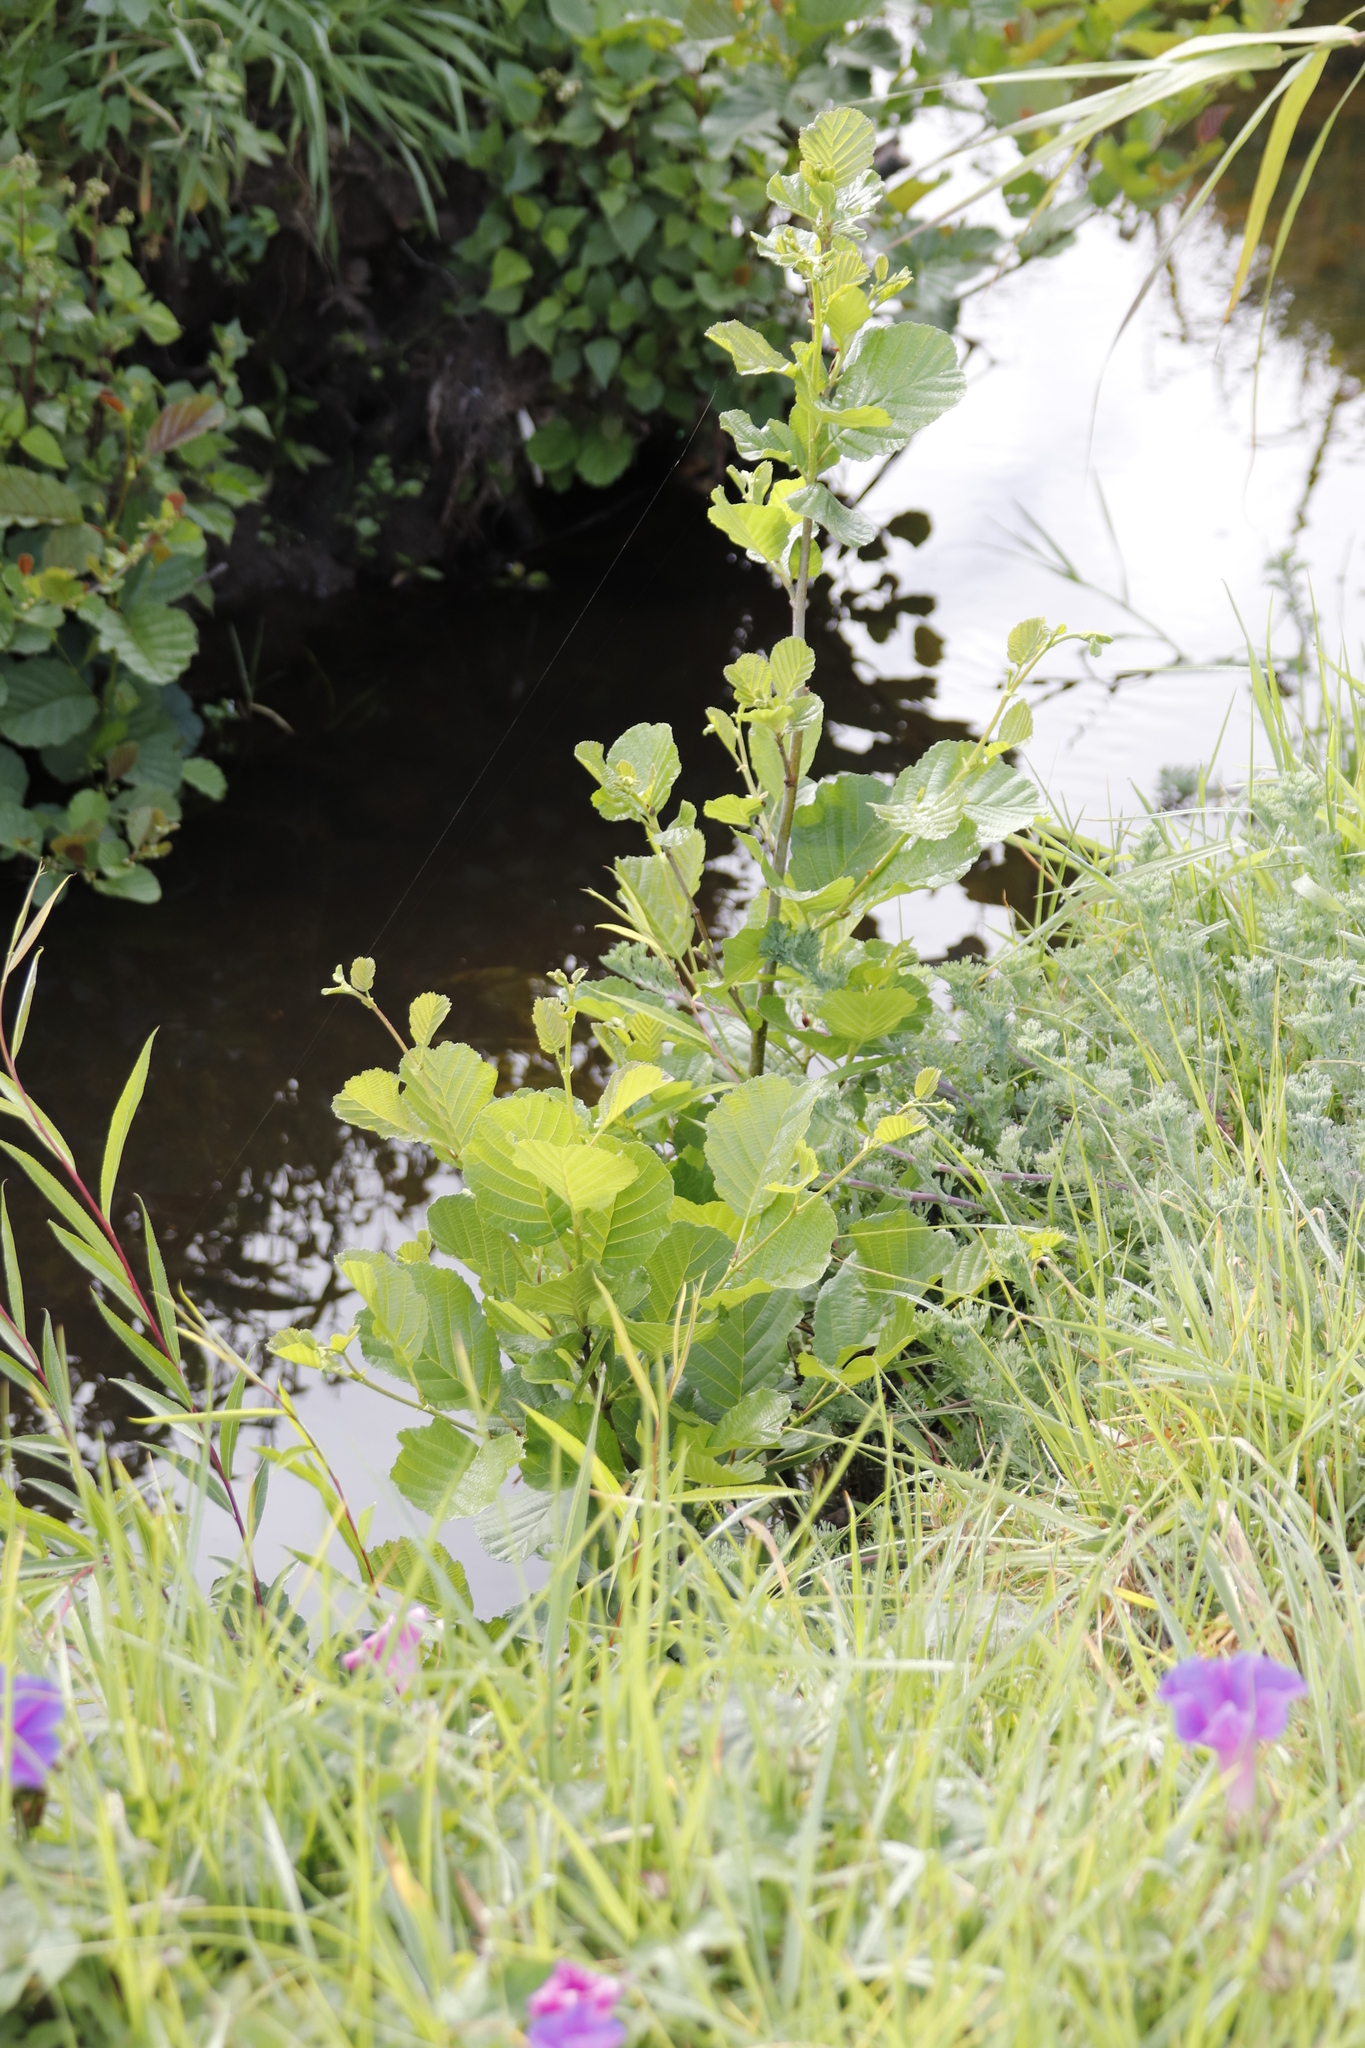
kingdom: Plantae
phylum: Tracheophyta
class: Magnoliopsida
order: Fagales
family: Betulaceae
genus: Alnus
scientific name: Alnus glutinosa
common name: Black alder
